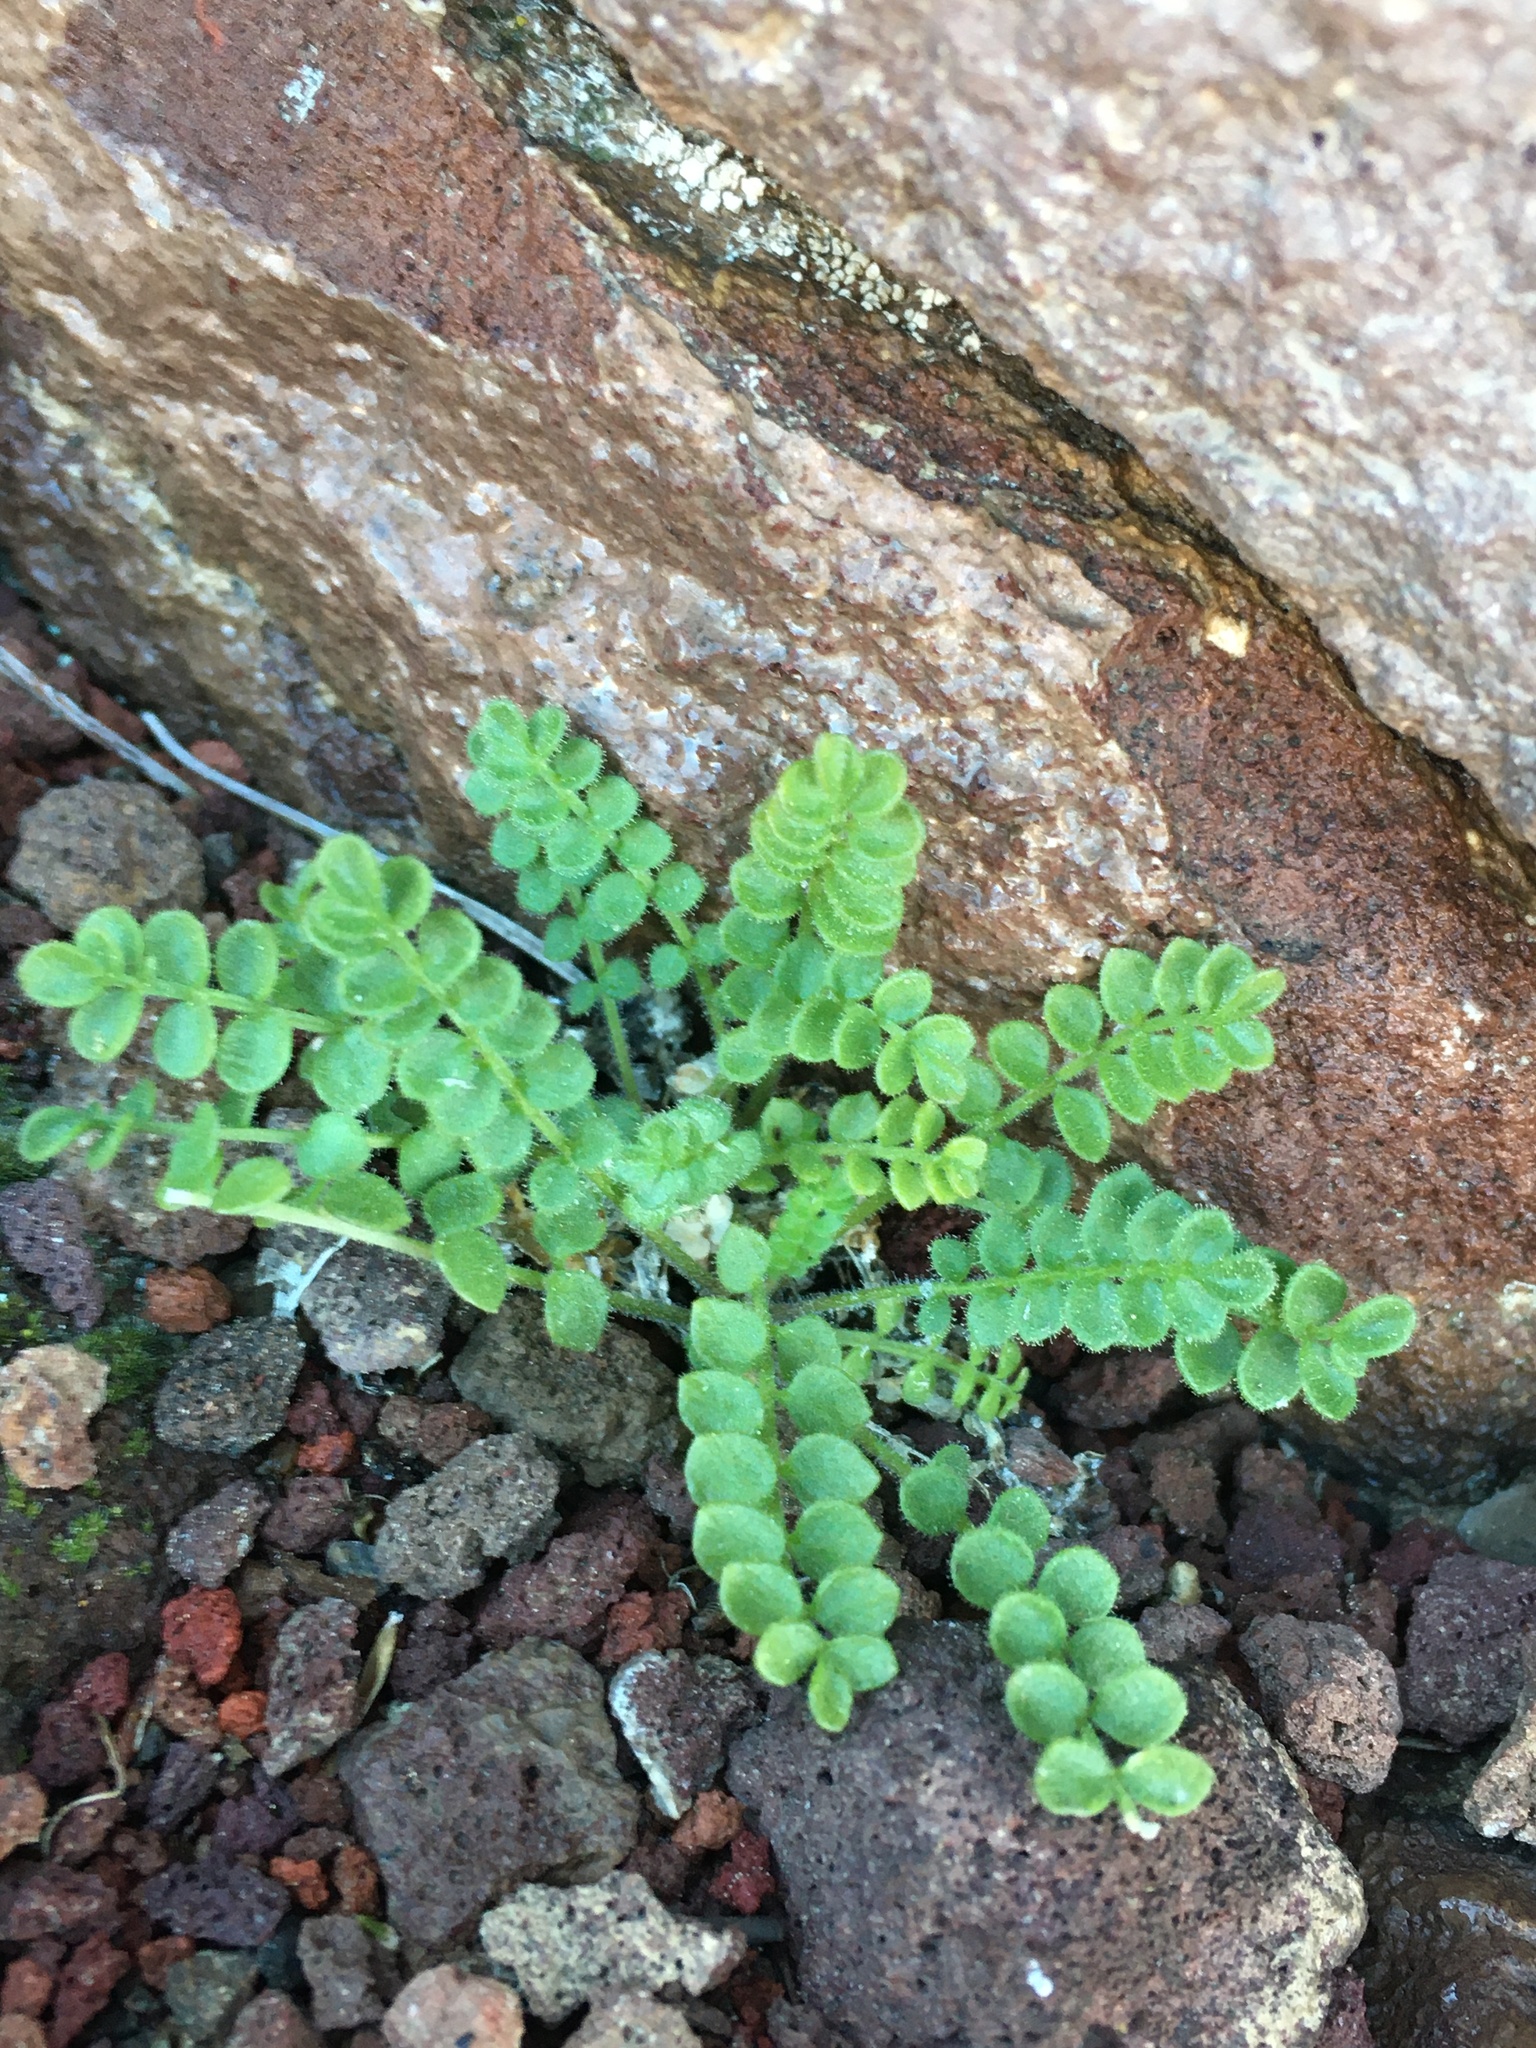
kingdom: Plantae
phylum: Tracheophyta
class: Magnoliopsida
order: Ericales
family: Polemoniaceae
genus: Polemonium
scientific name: Polemonium pulcherrimum
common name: Short jacob's-ladder
